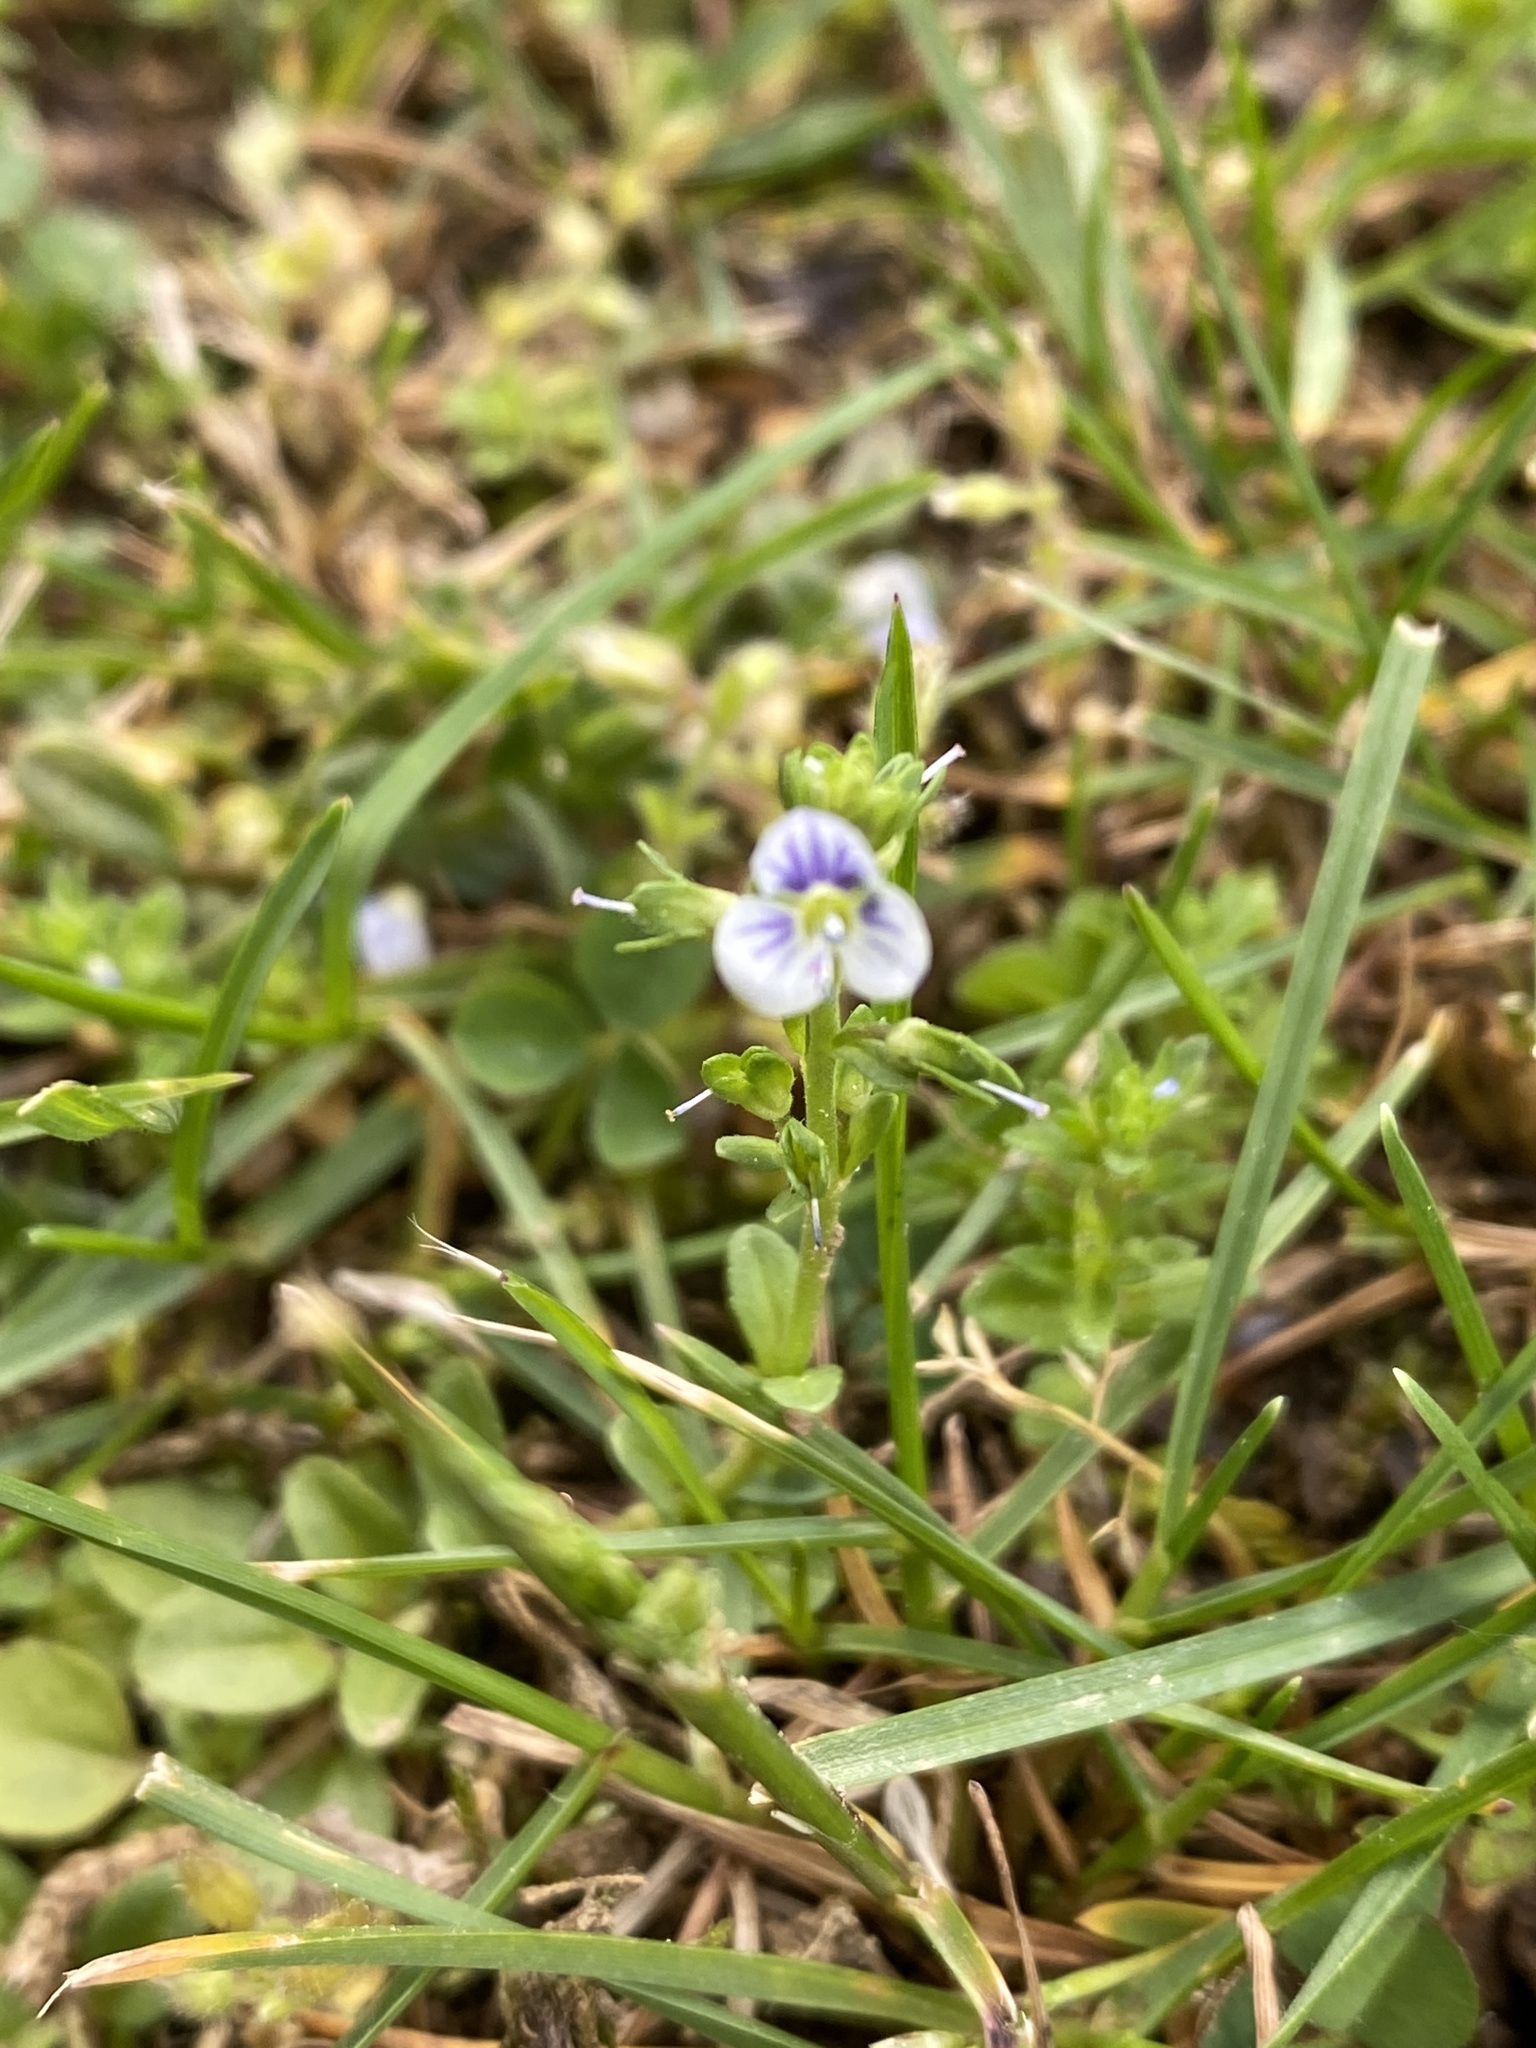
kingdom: Plantae
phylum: Tracheophyta
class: Magnoliopsida
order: Lamiales
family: Plantaginaceae
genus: Veronica
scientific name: Veronica serpyllifolia
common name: Thyme-leaved speedwell
